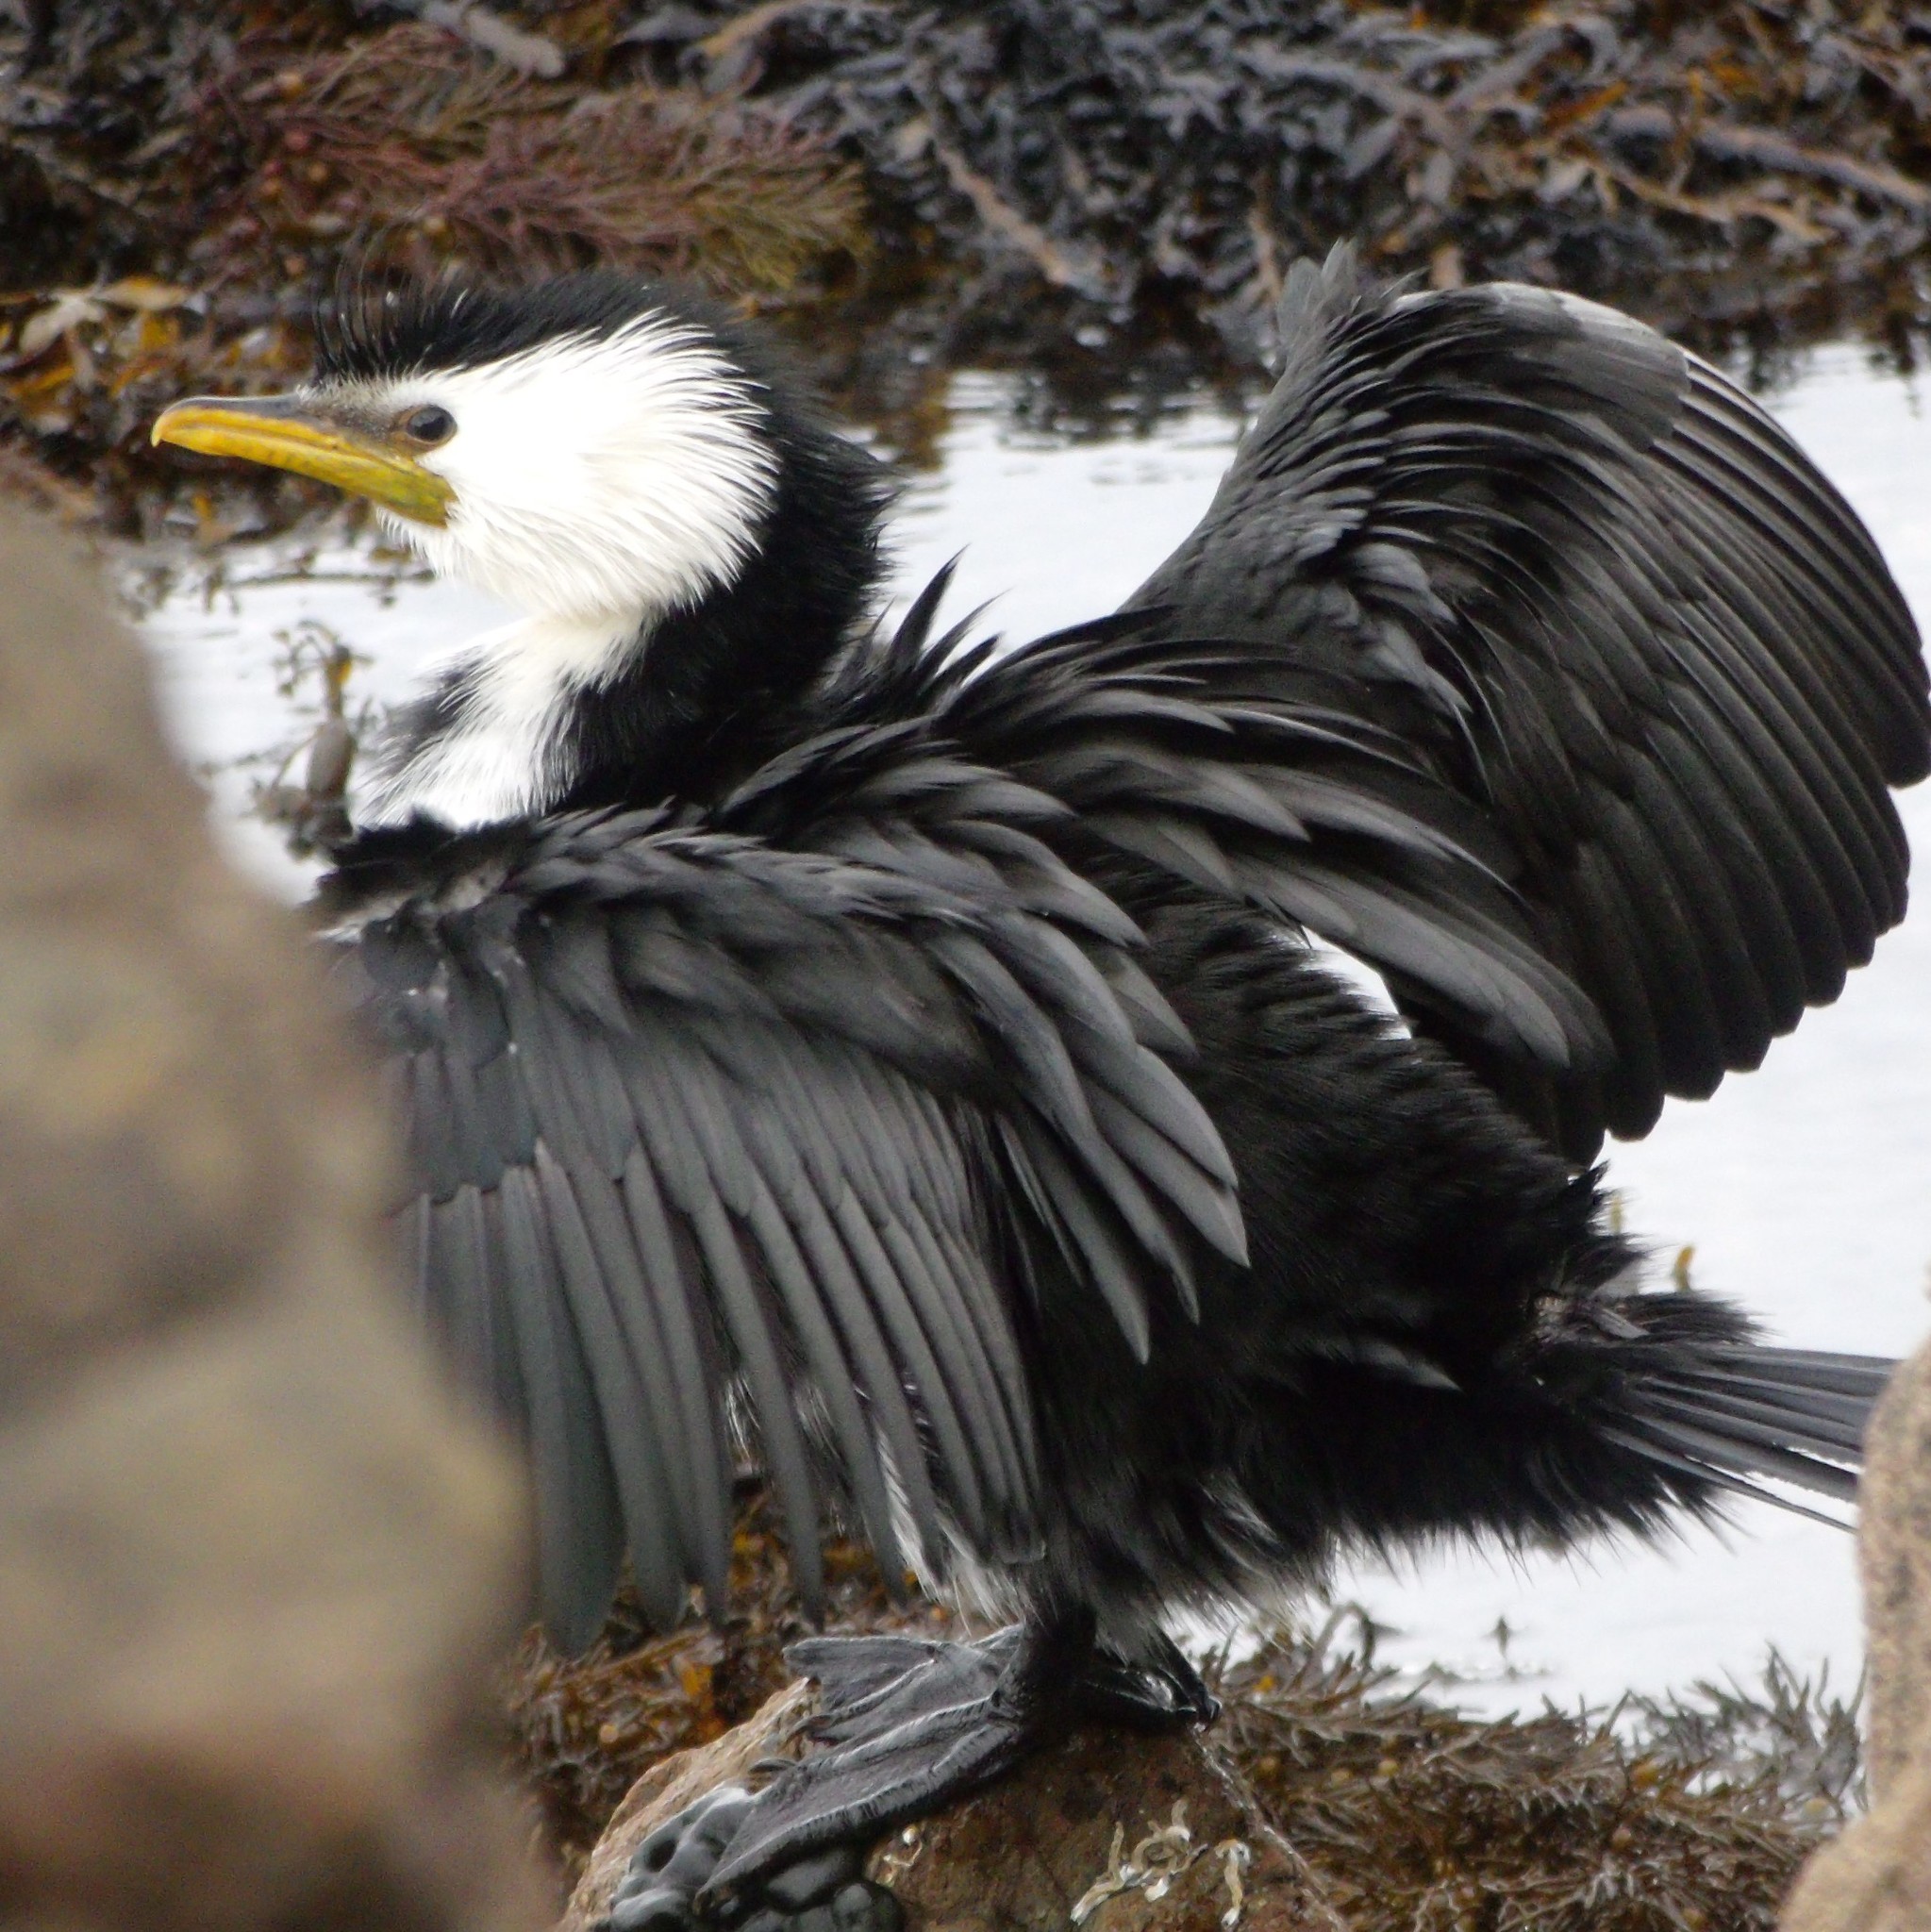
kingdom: Animalia
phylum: Chordata
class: Aves
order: Suliformes
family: Phalacrocoracidae
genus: Microcarbo
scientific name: Microcarbo melanoleucos
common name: Little pied cormorant
